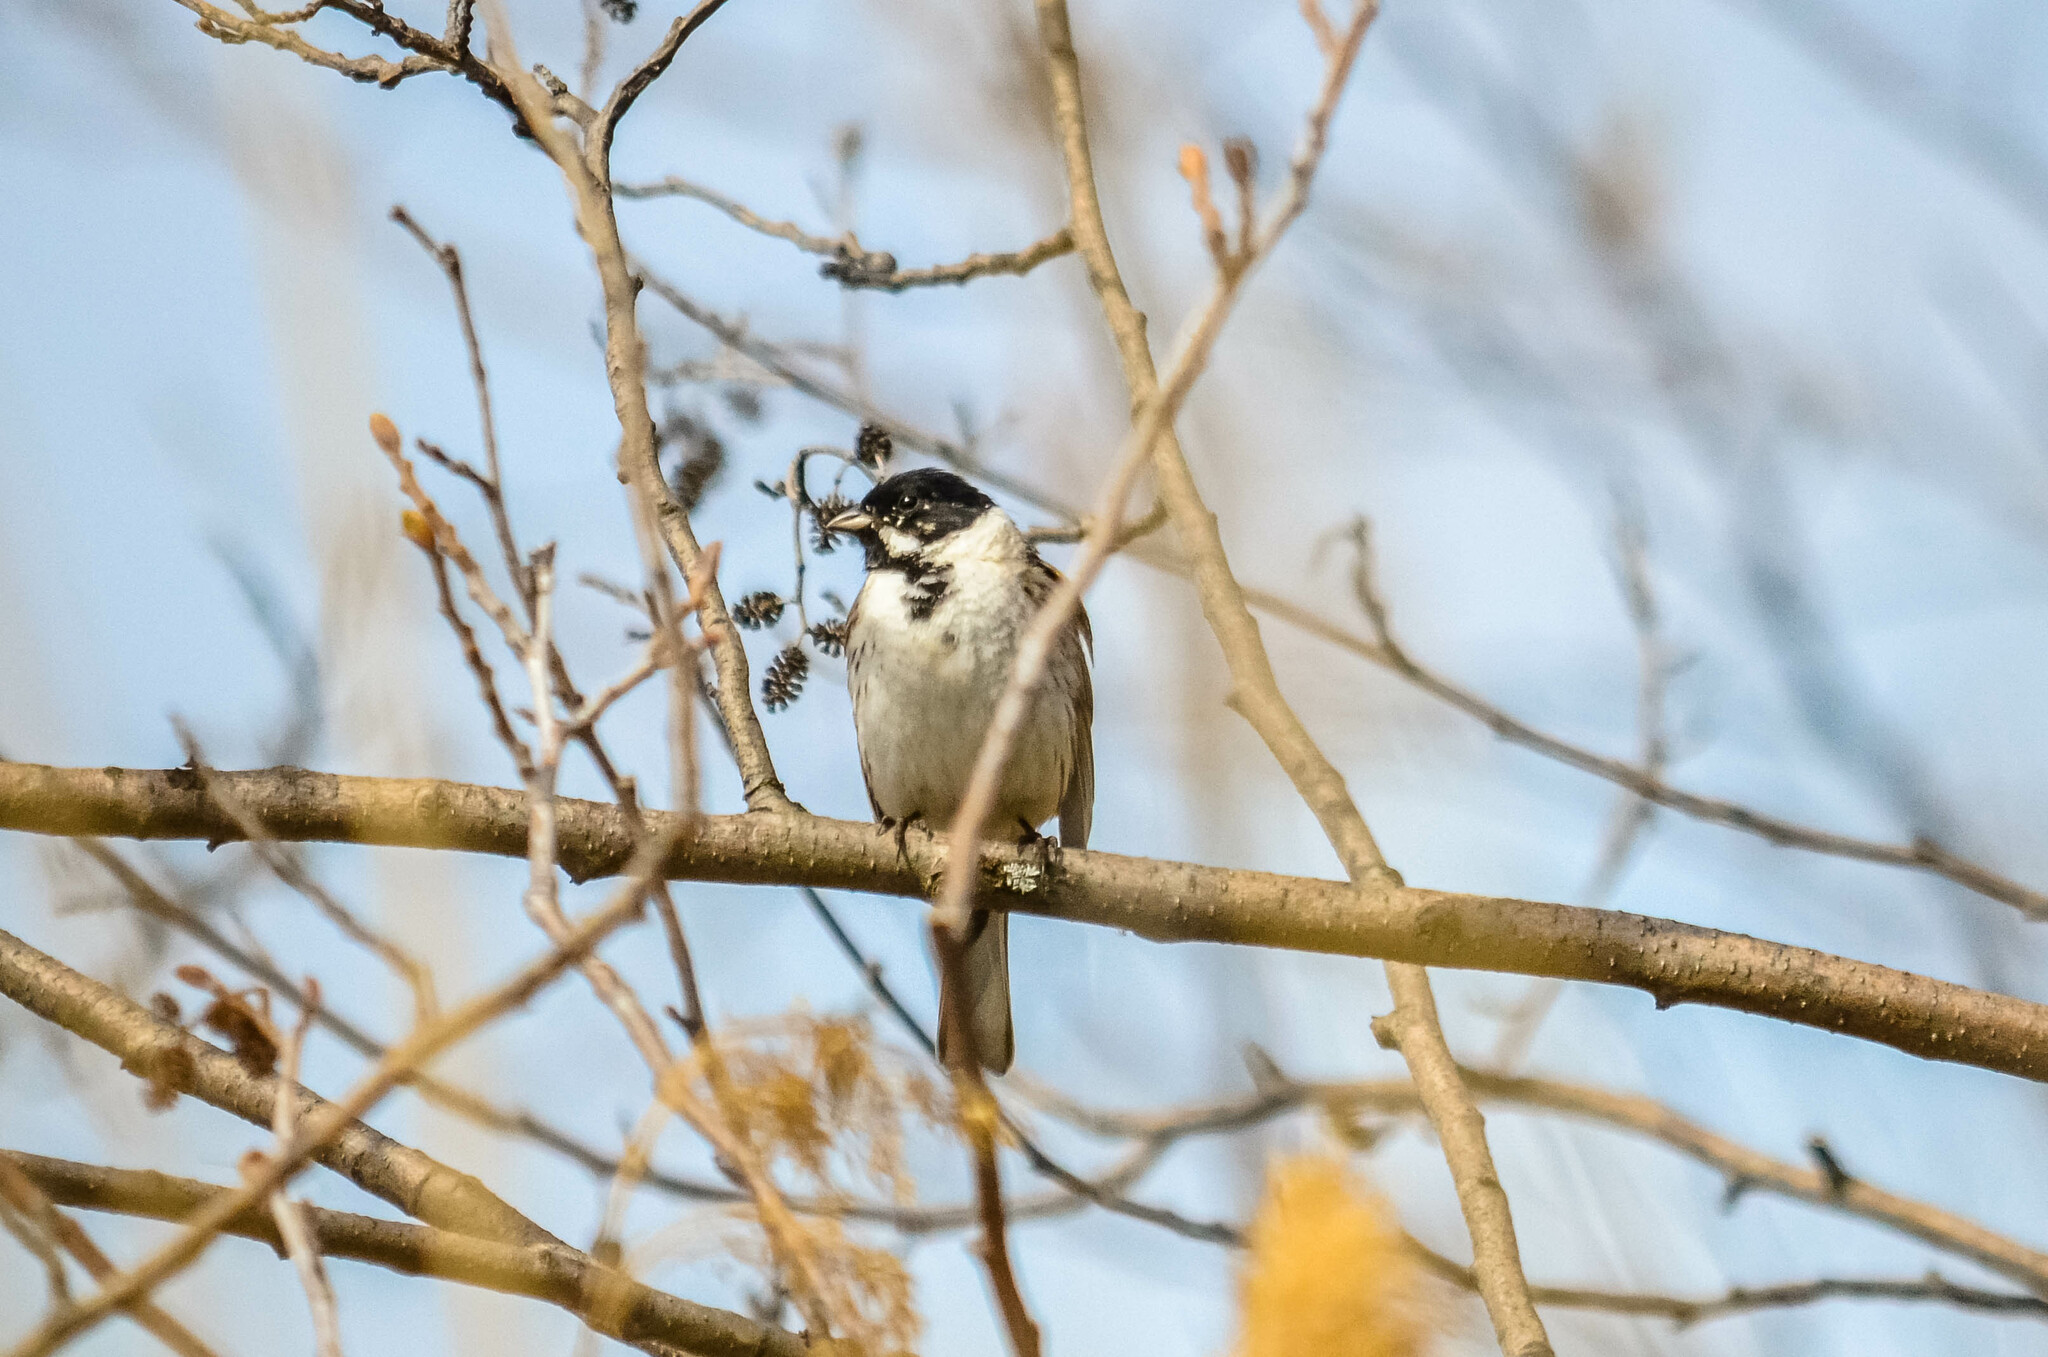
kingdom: Animalia
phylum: Chordata
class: Aves
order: Passeriformes
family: Emberizidae
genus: Emberiza
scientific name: Emberiza schoeniclus
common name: Reed bunting
